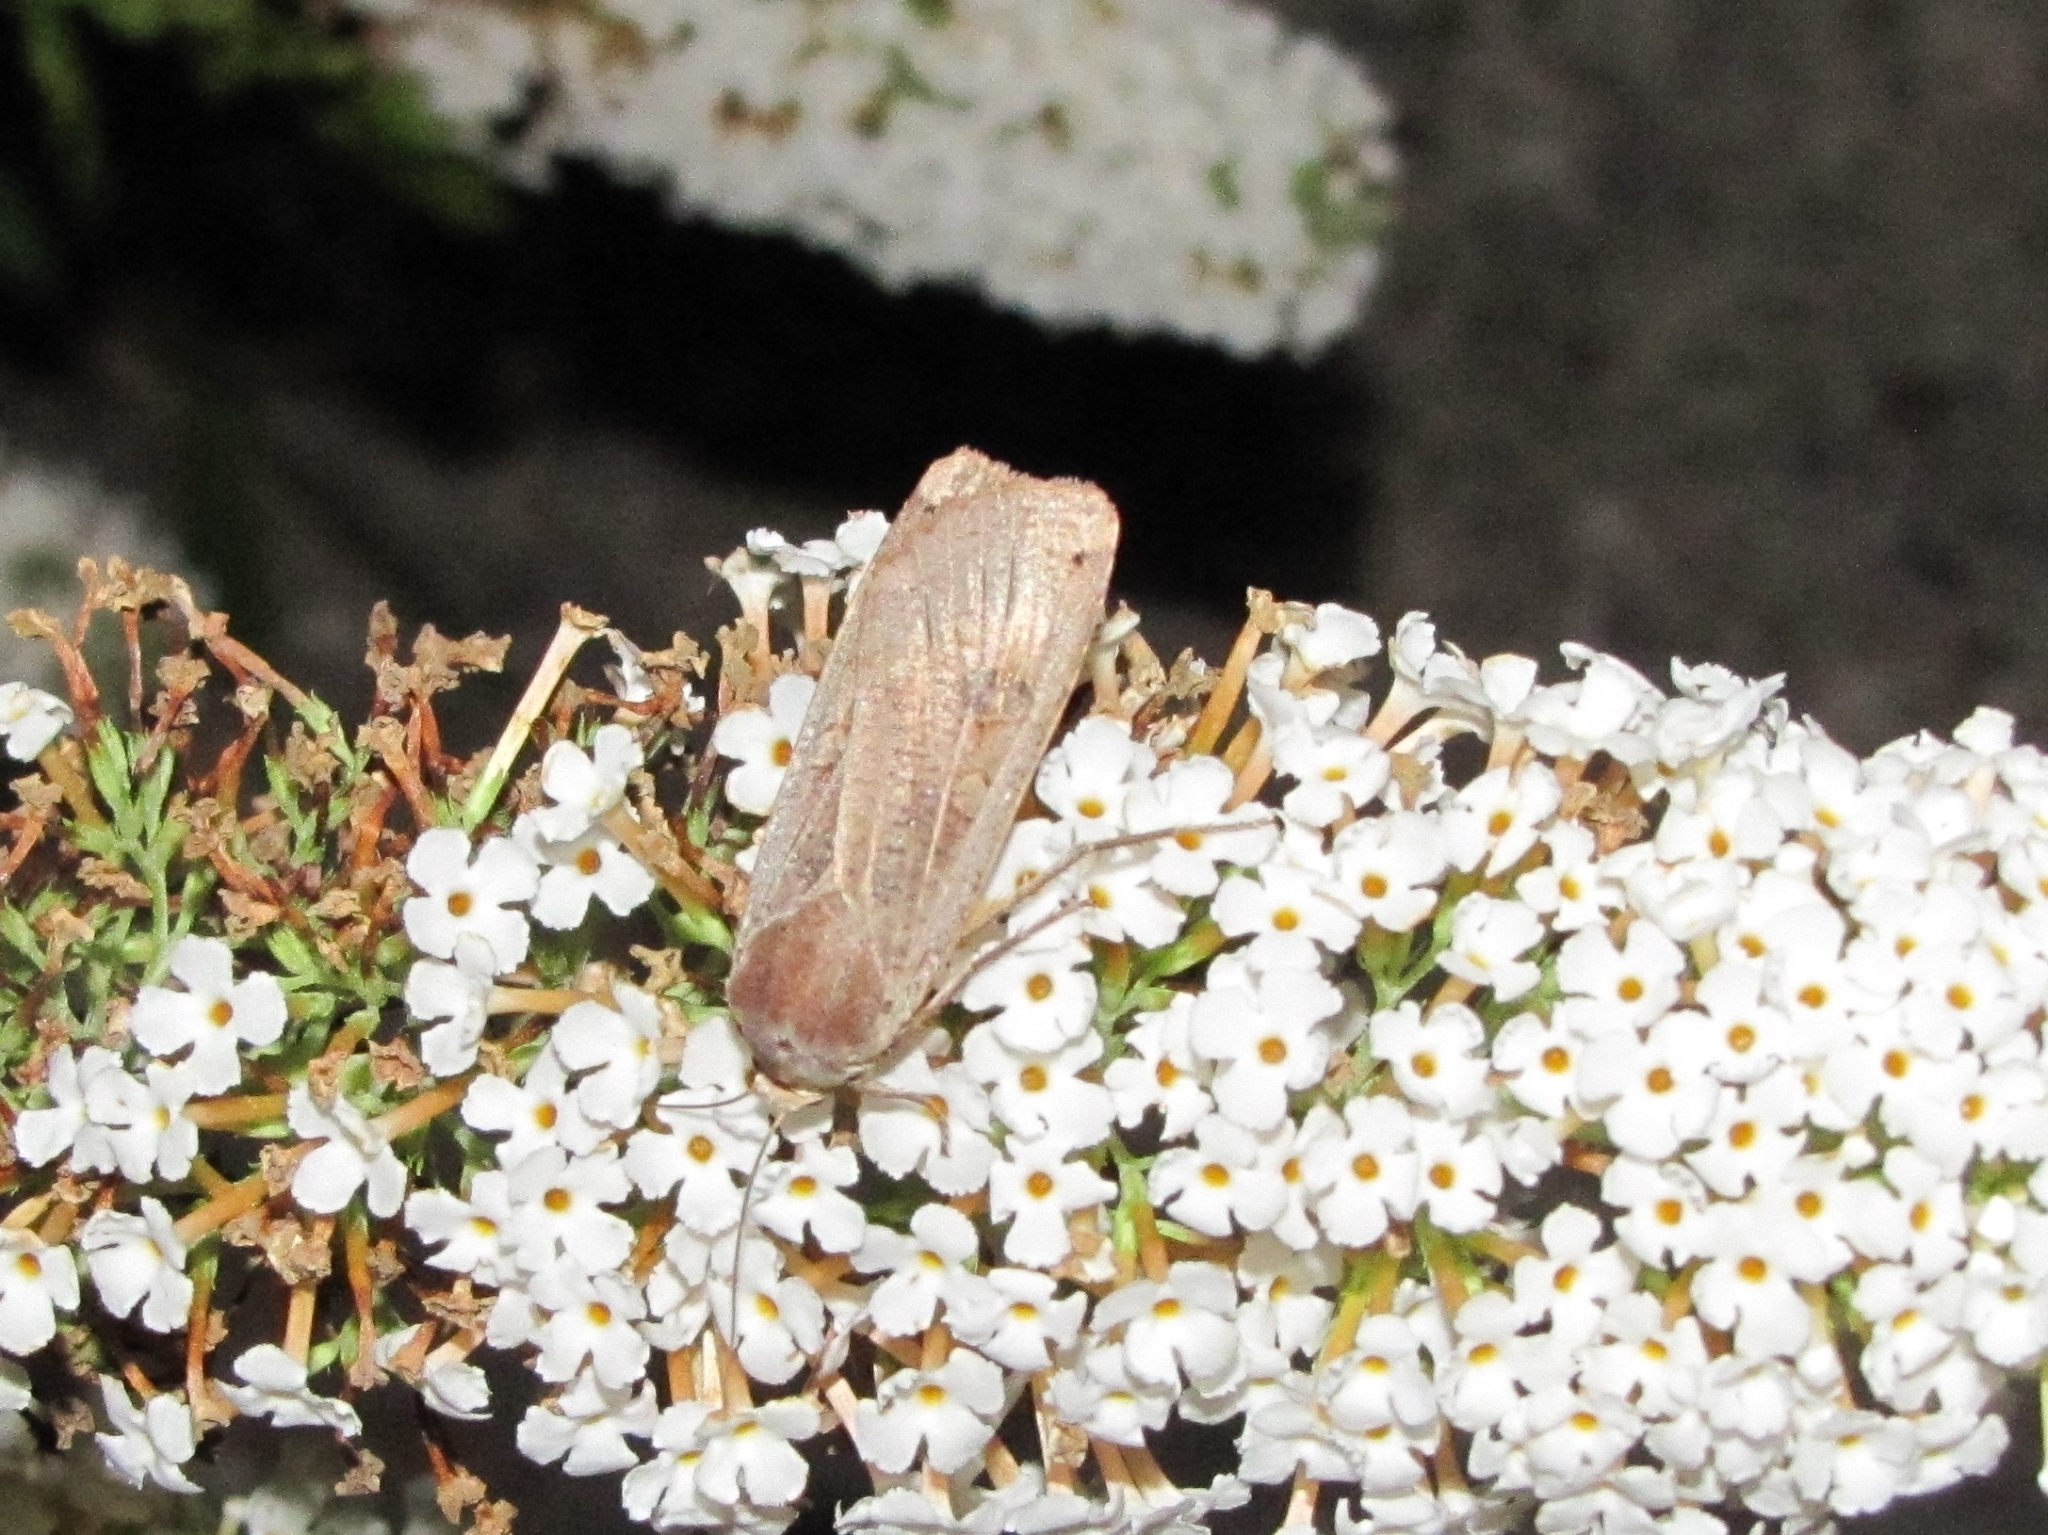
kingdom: Animalia
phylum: Arthropoda
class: Insecta
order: Lepidoptera
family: Noctuidae
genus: Noctua
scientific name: Noctua pronuba
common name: Large yellow underwing
